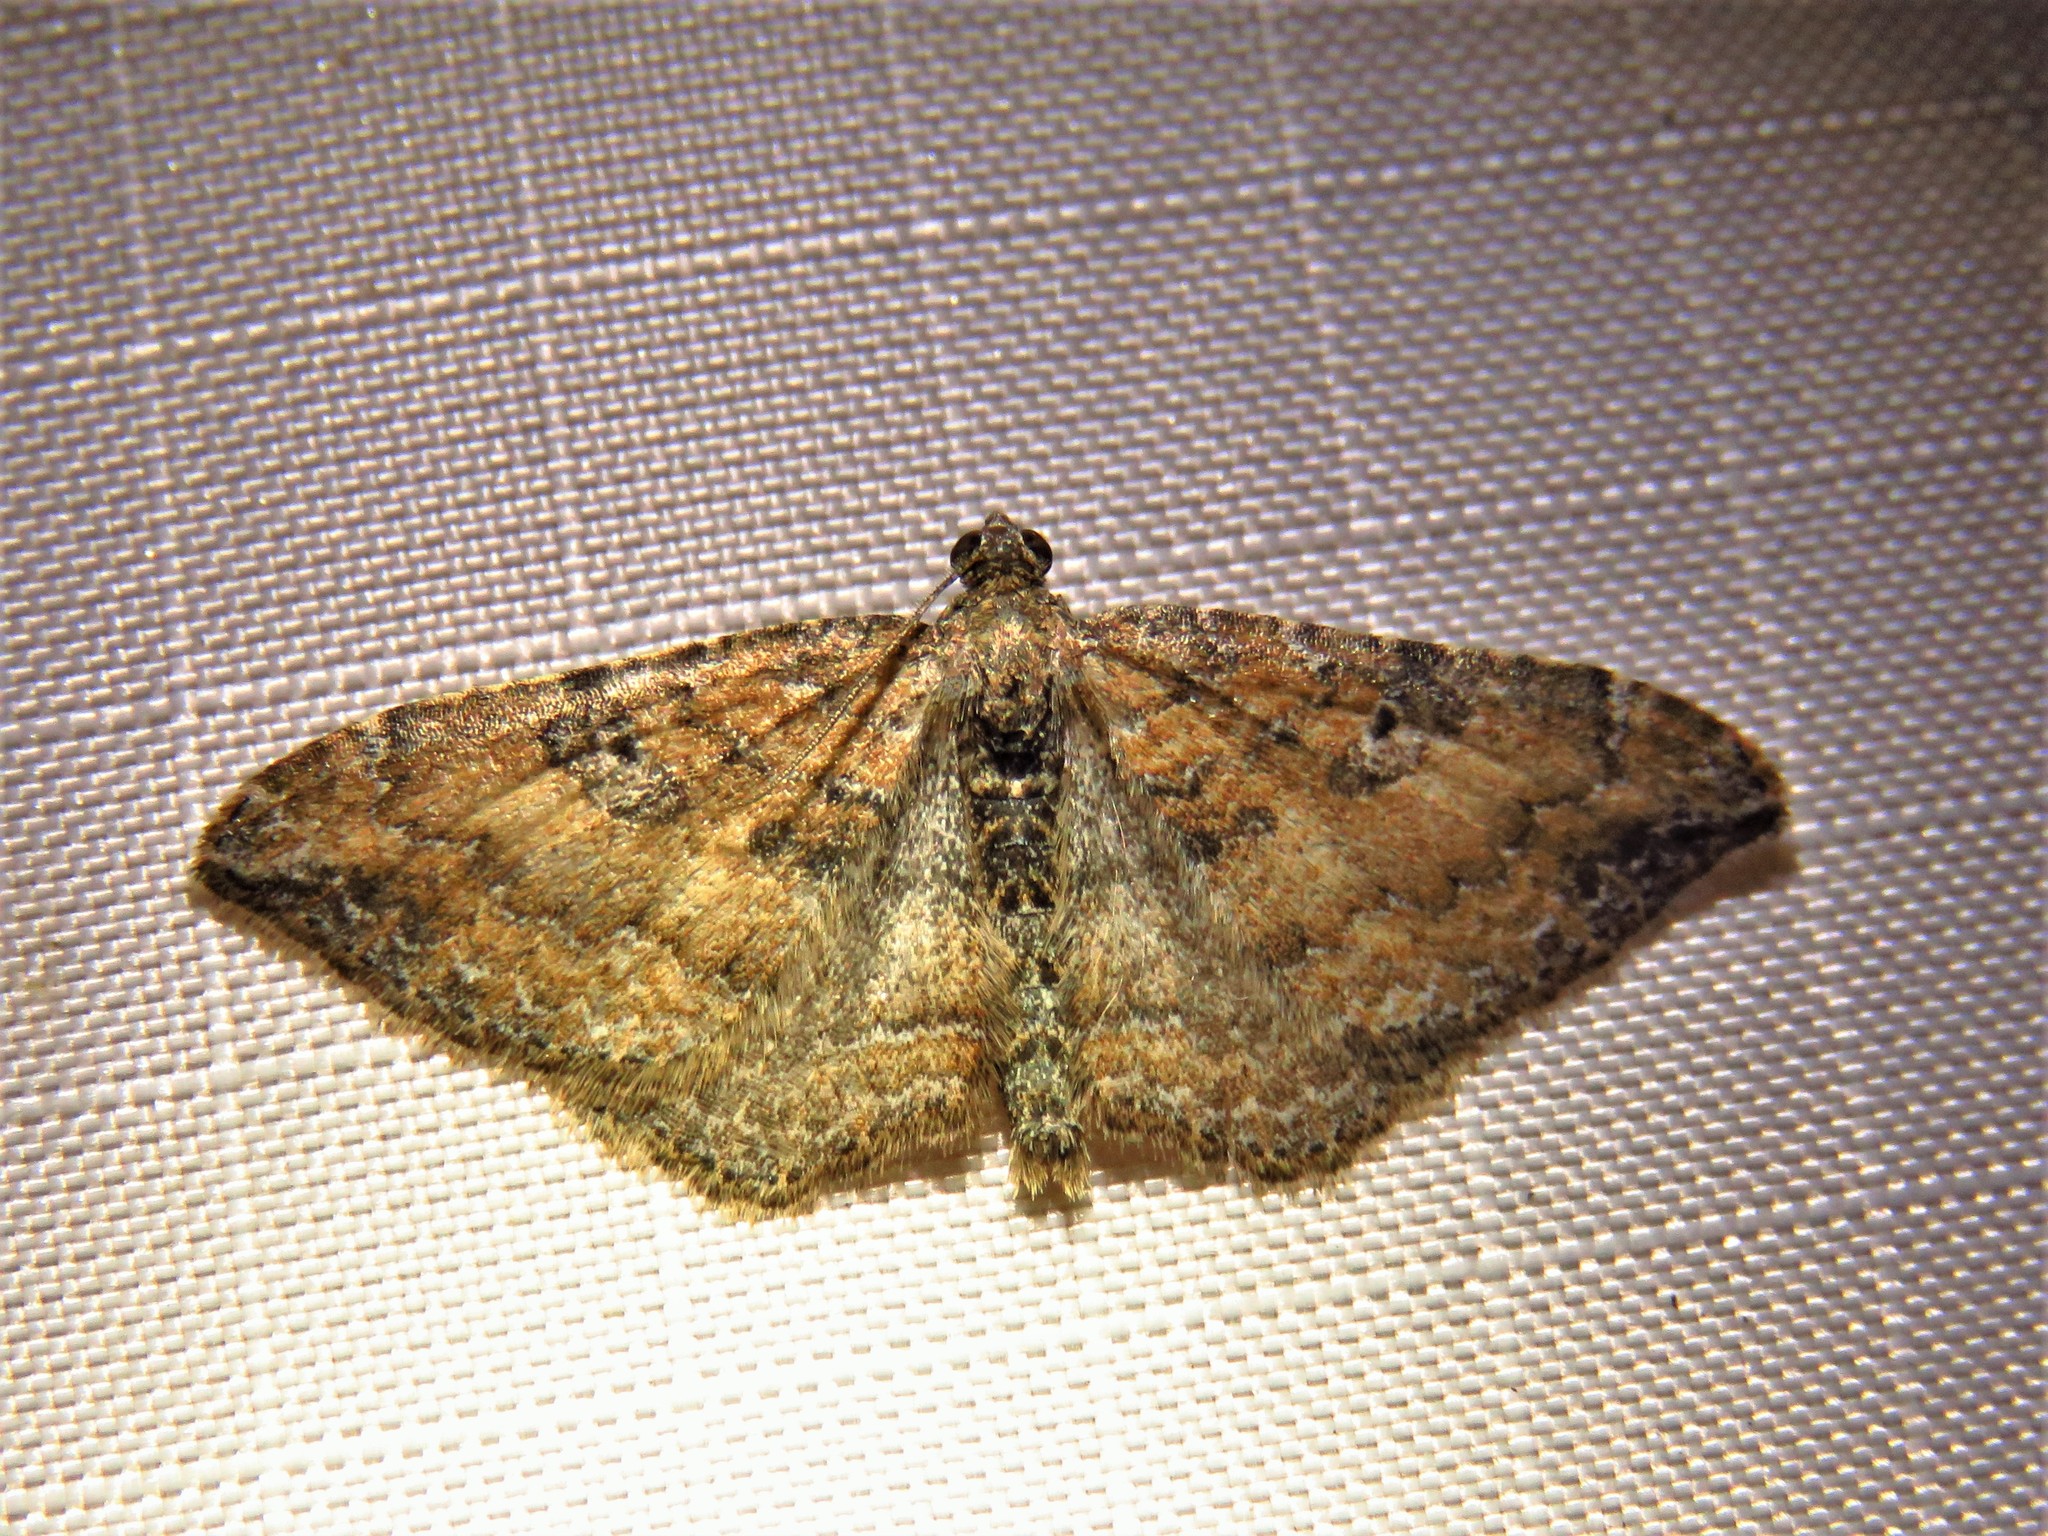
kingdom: Animalia
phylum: Arthropoda
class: Insecta
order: Lepidoptera
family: Geometridae
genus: Orthonama
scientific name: Orthonama obstipata
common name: The gem
